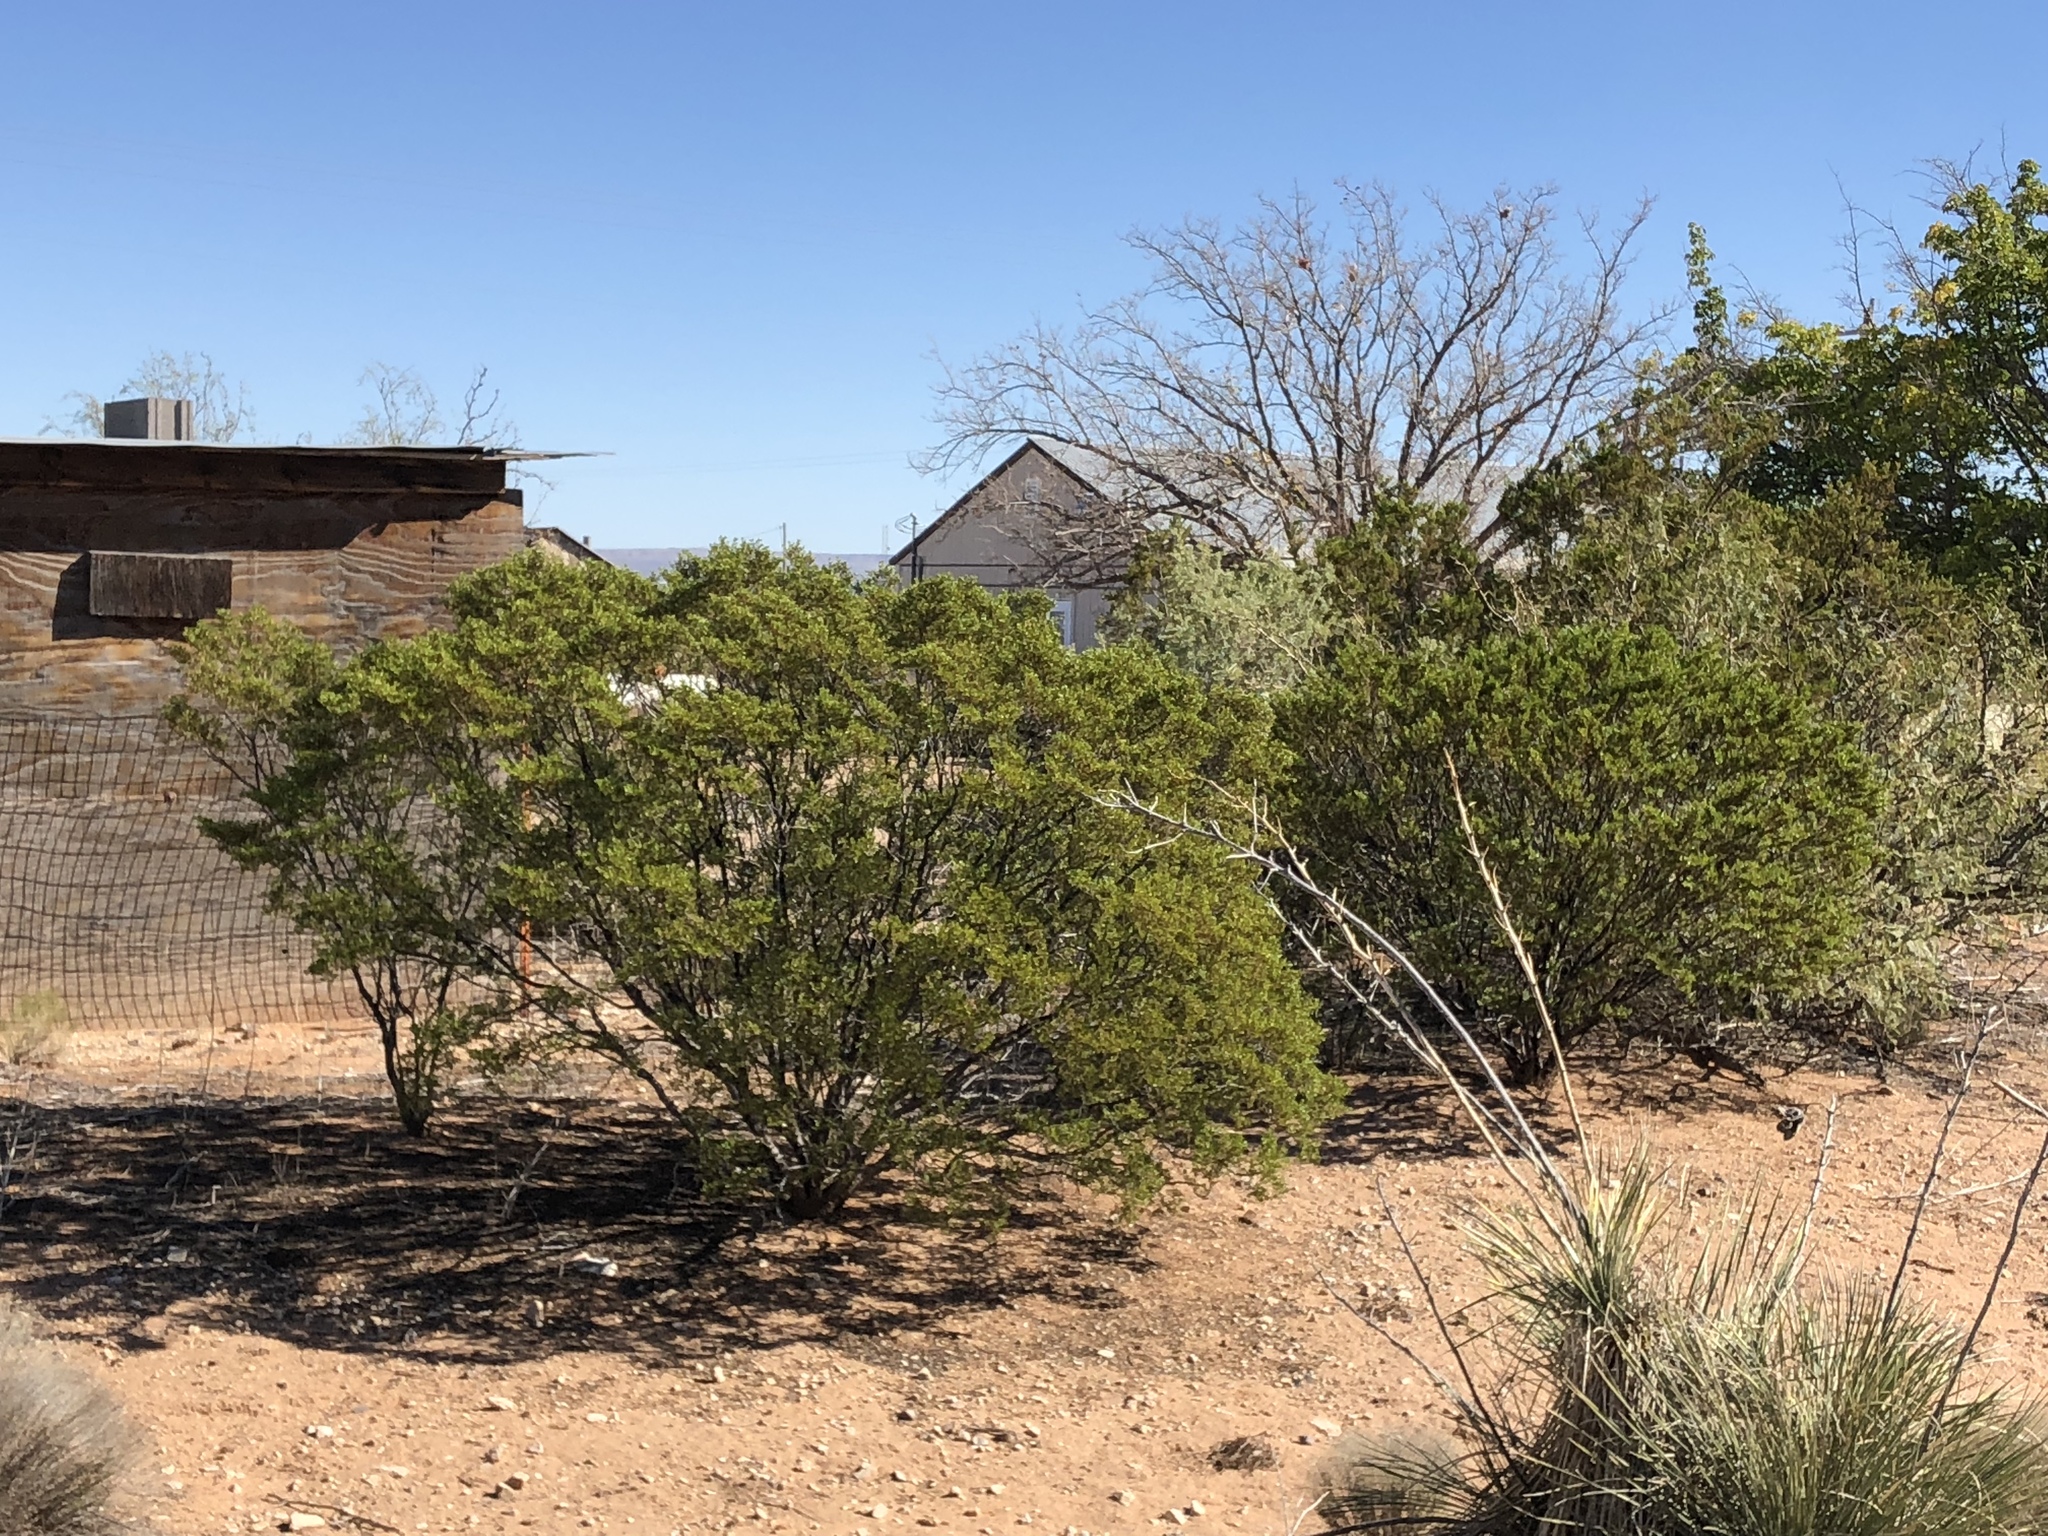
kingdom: Plantae
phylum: Tracheophyta
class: Magnoliopsida
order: Zygophyllales
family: Zygophyllaceae
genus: Larrea
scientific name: Larrea tridentata
